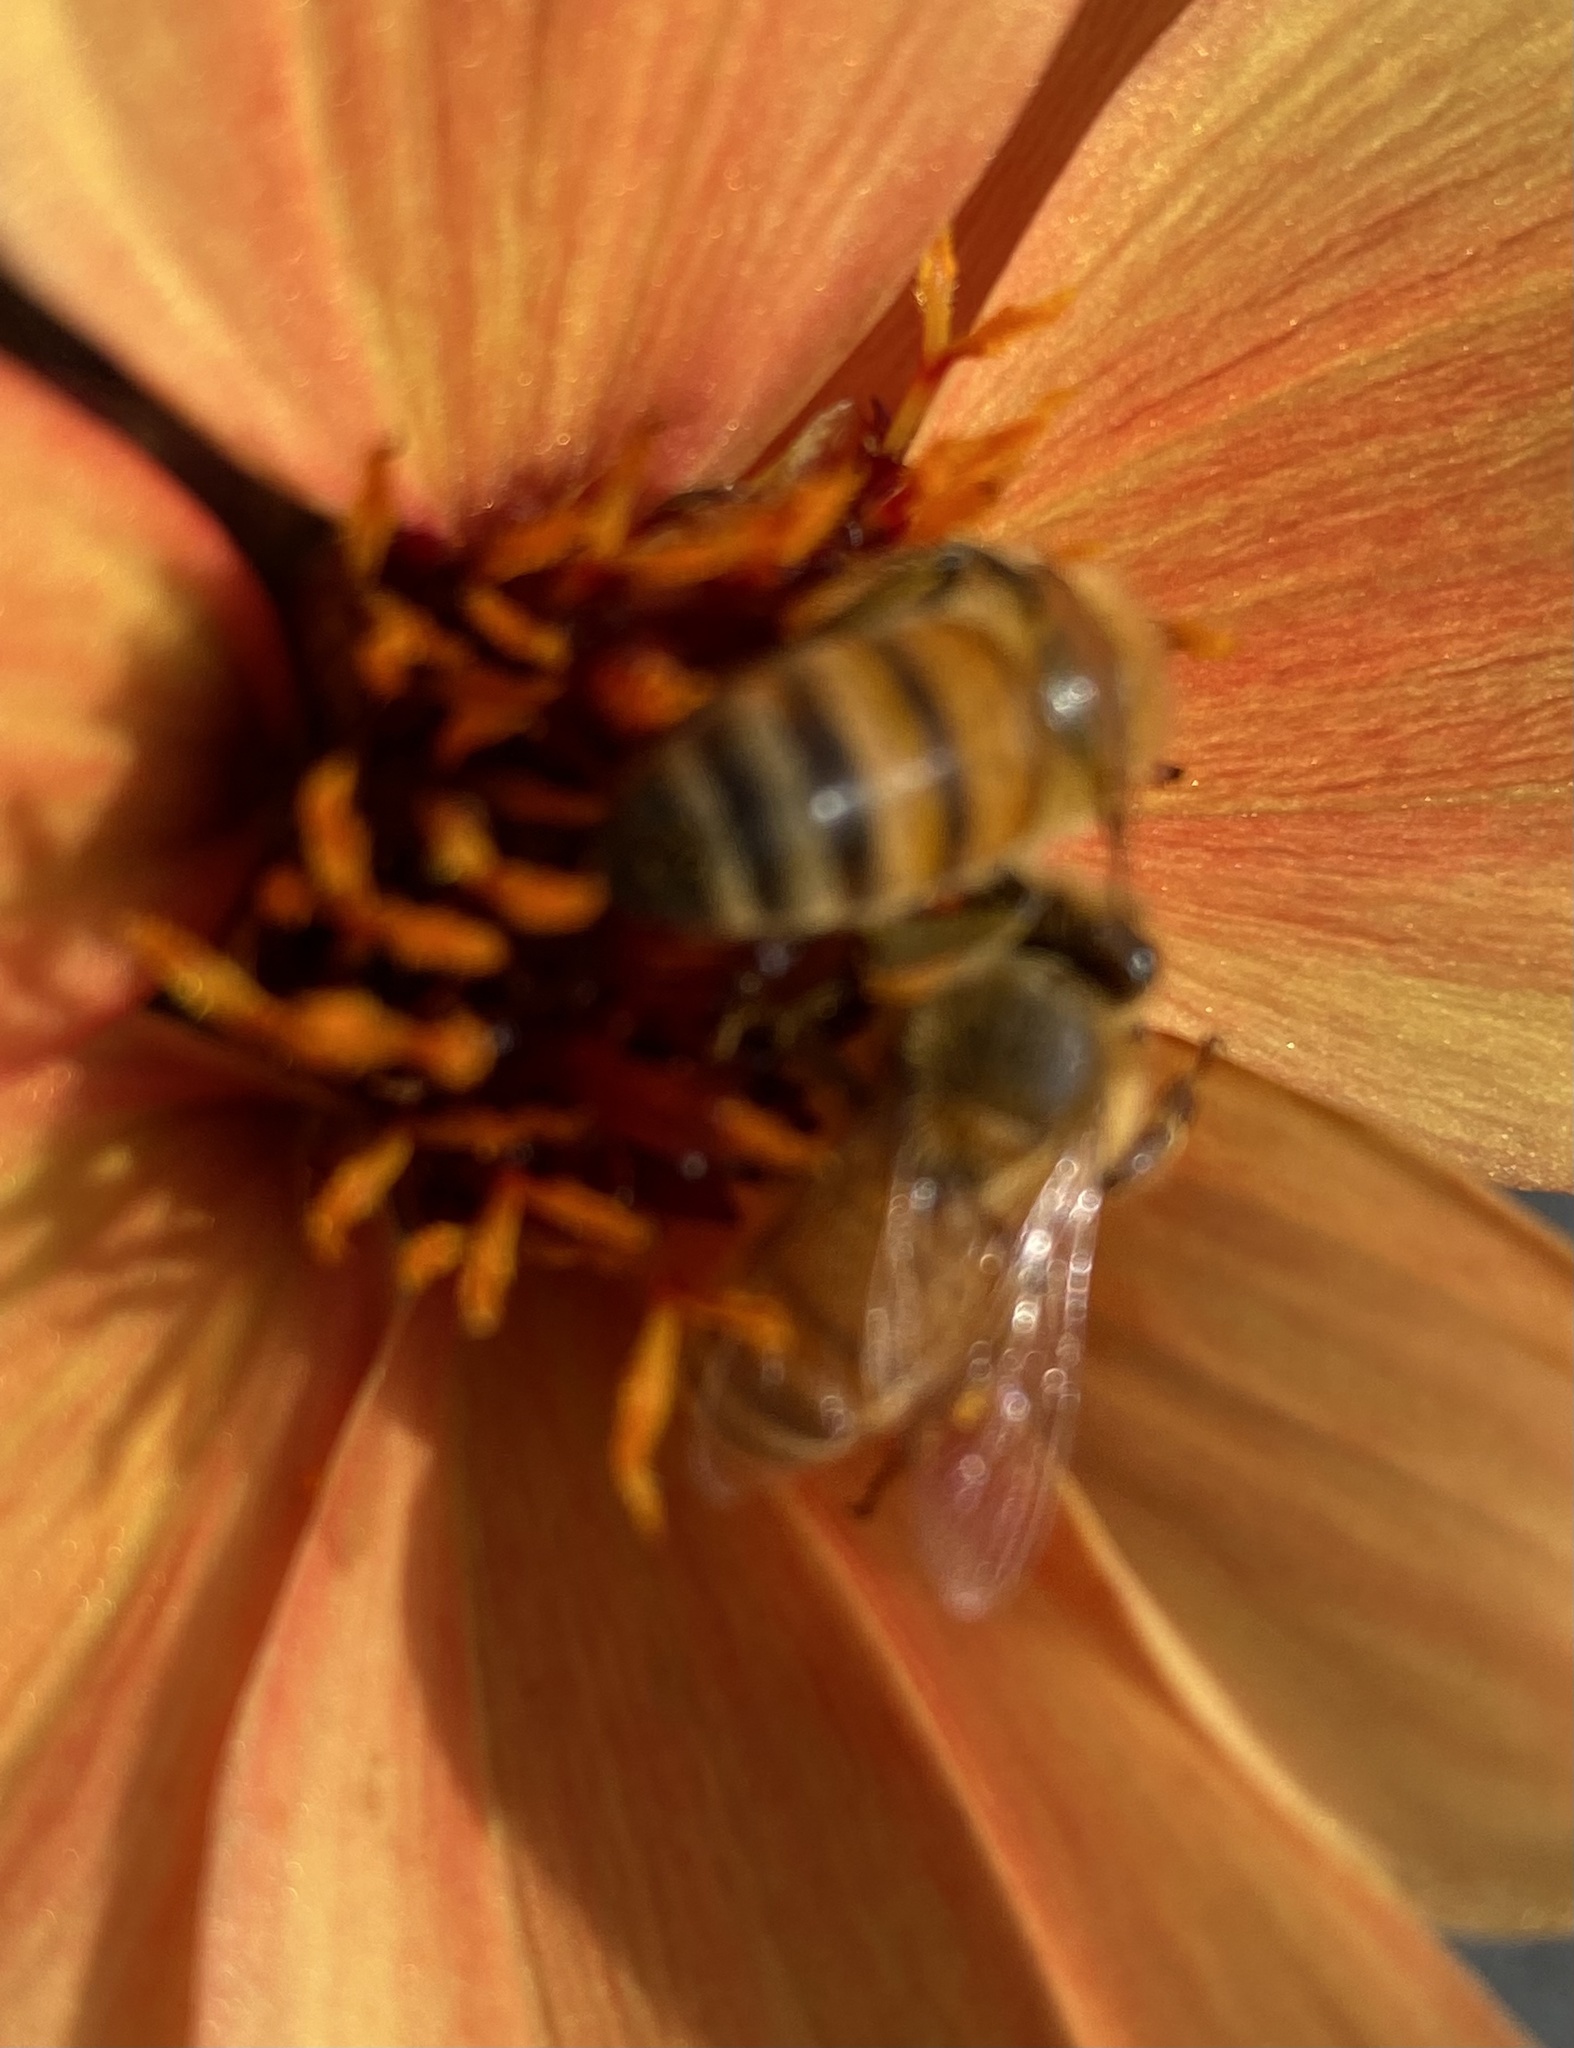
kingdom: Animalia
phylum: Arthropoda
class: Insecta
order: Hymenoptera
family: Apidae
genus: Apis
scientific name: Apis mellifera
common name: Honey bee
